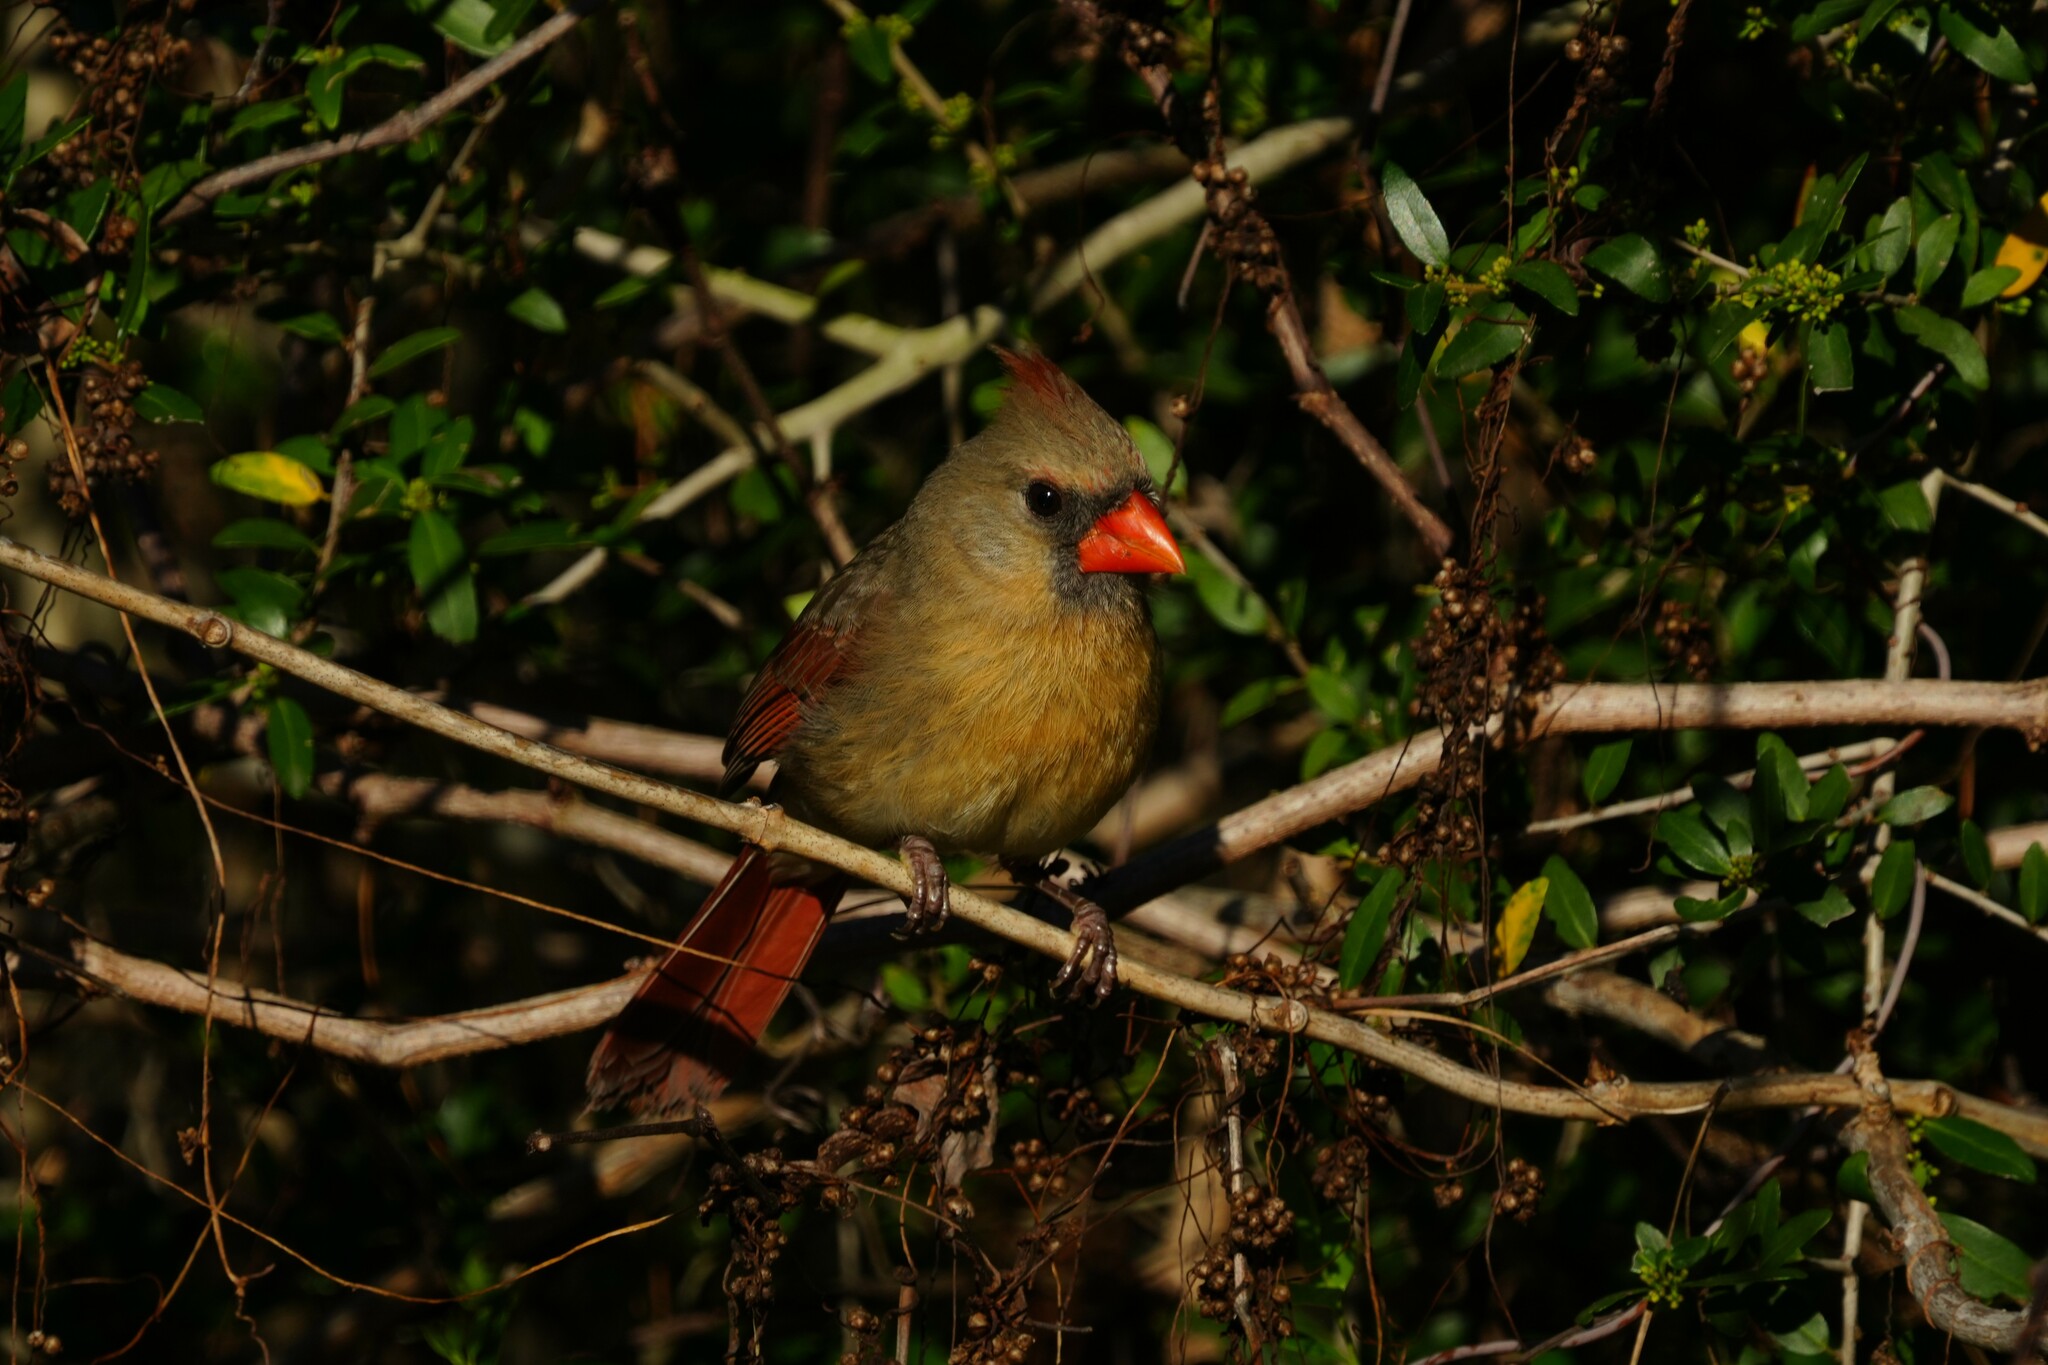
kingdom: Animalia
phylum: Chordata
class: Aves
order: Passeriformes
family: Cardinalidae
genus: Cardinalis
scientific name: Cardinalis cardinalis
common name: Northern cardinal
